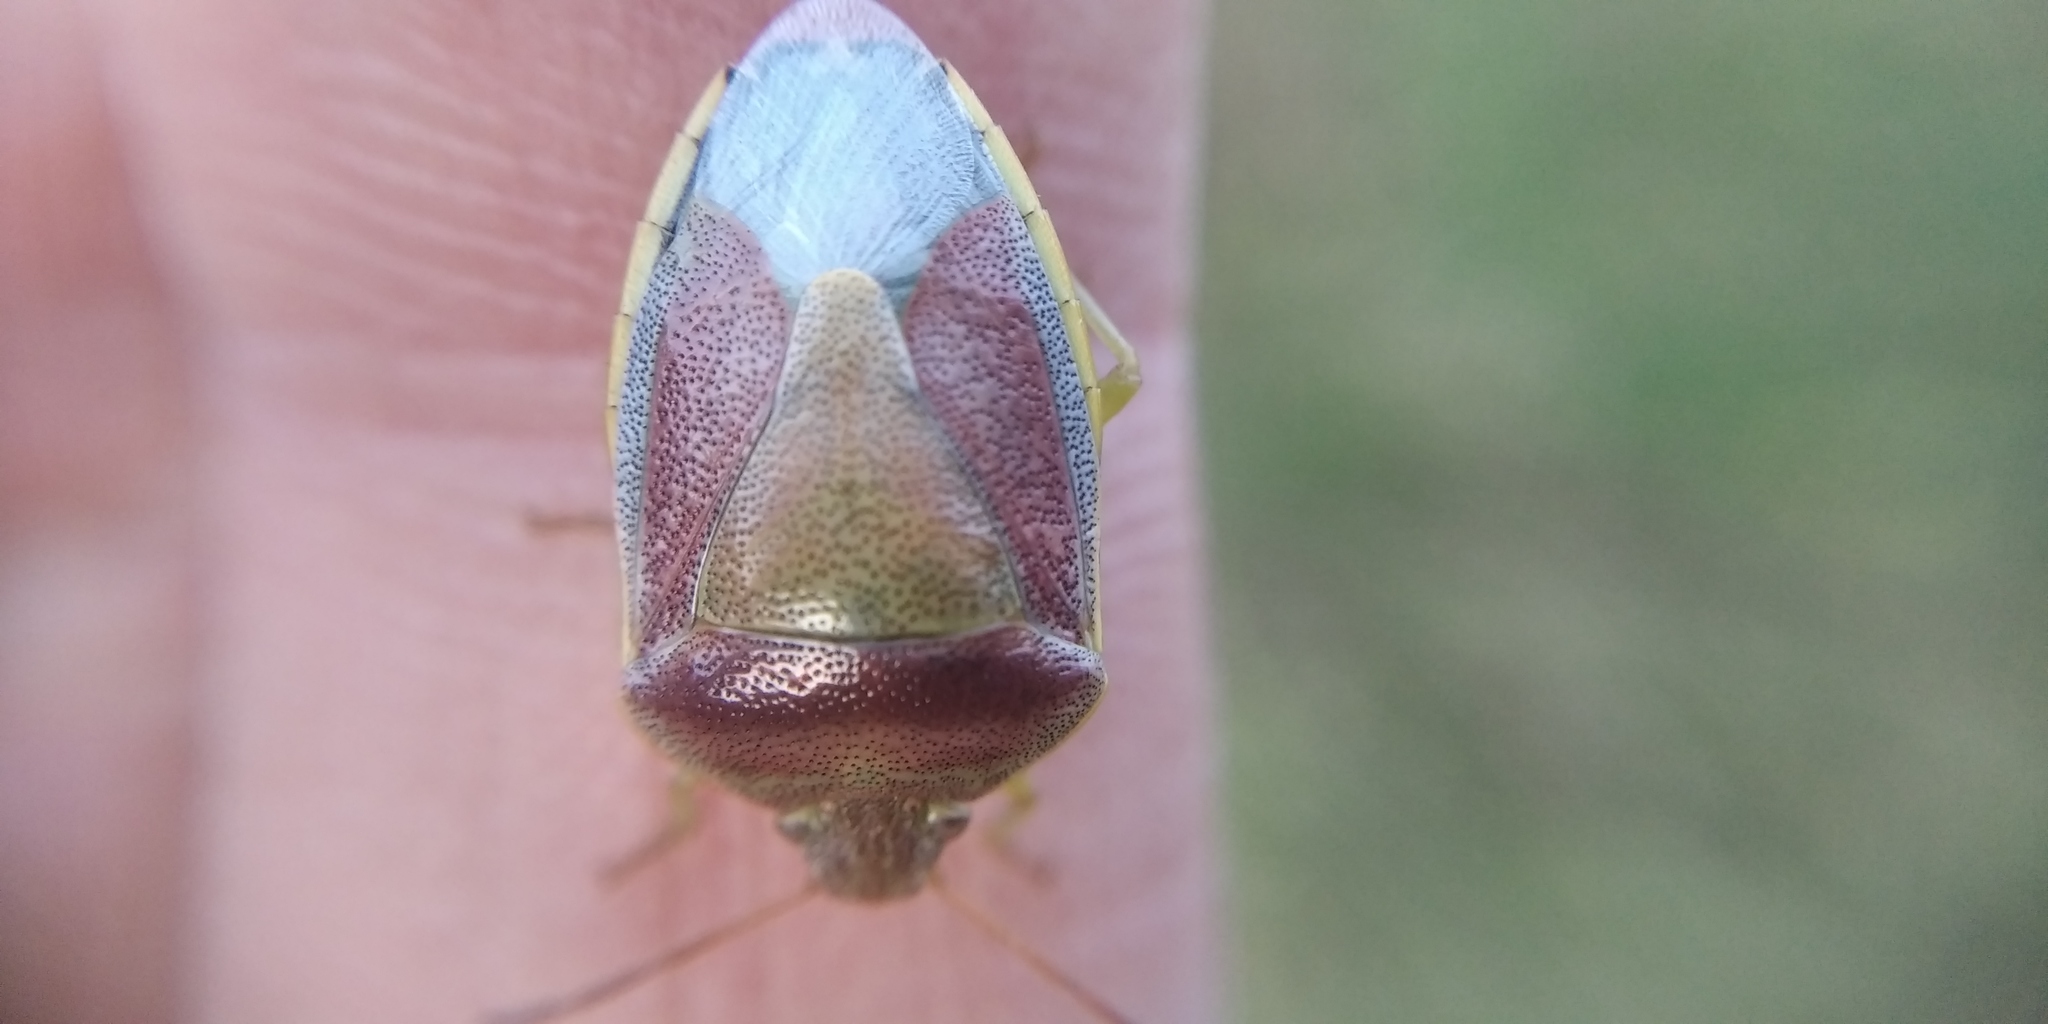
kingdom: Animalia
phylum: Arthropoda
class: Insecta
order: Hemiptera
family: Pentatomidae
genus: Piezodorus
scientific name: Piezodorus lituratus
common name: Stink bug
